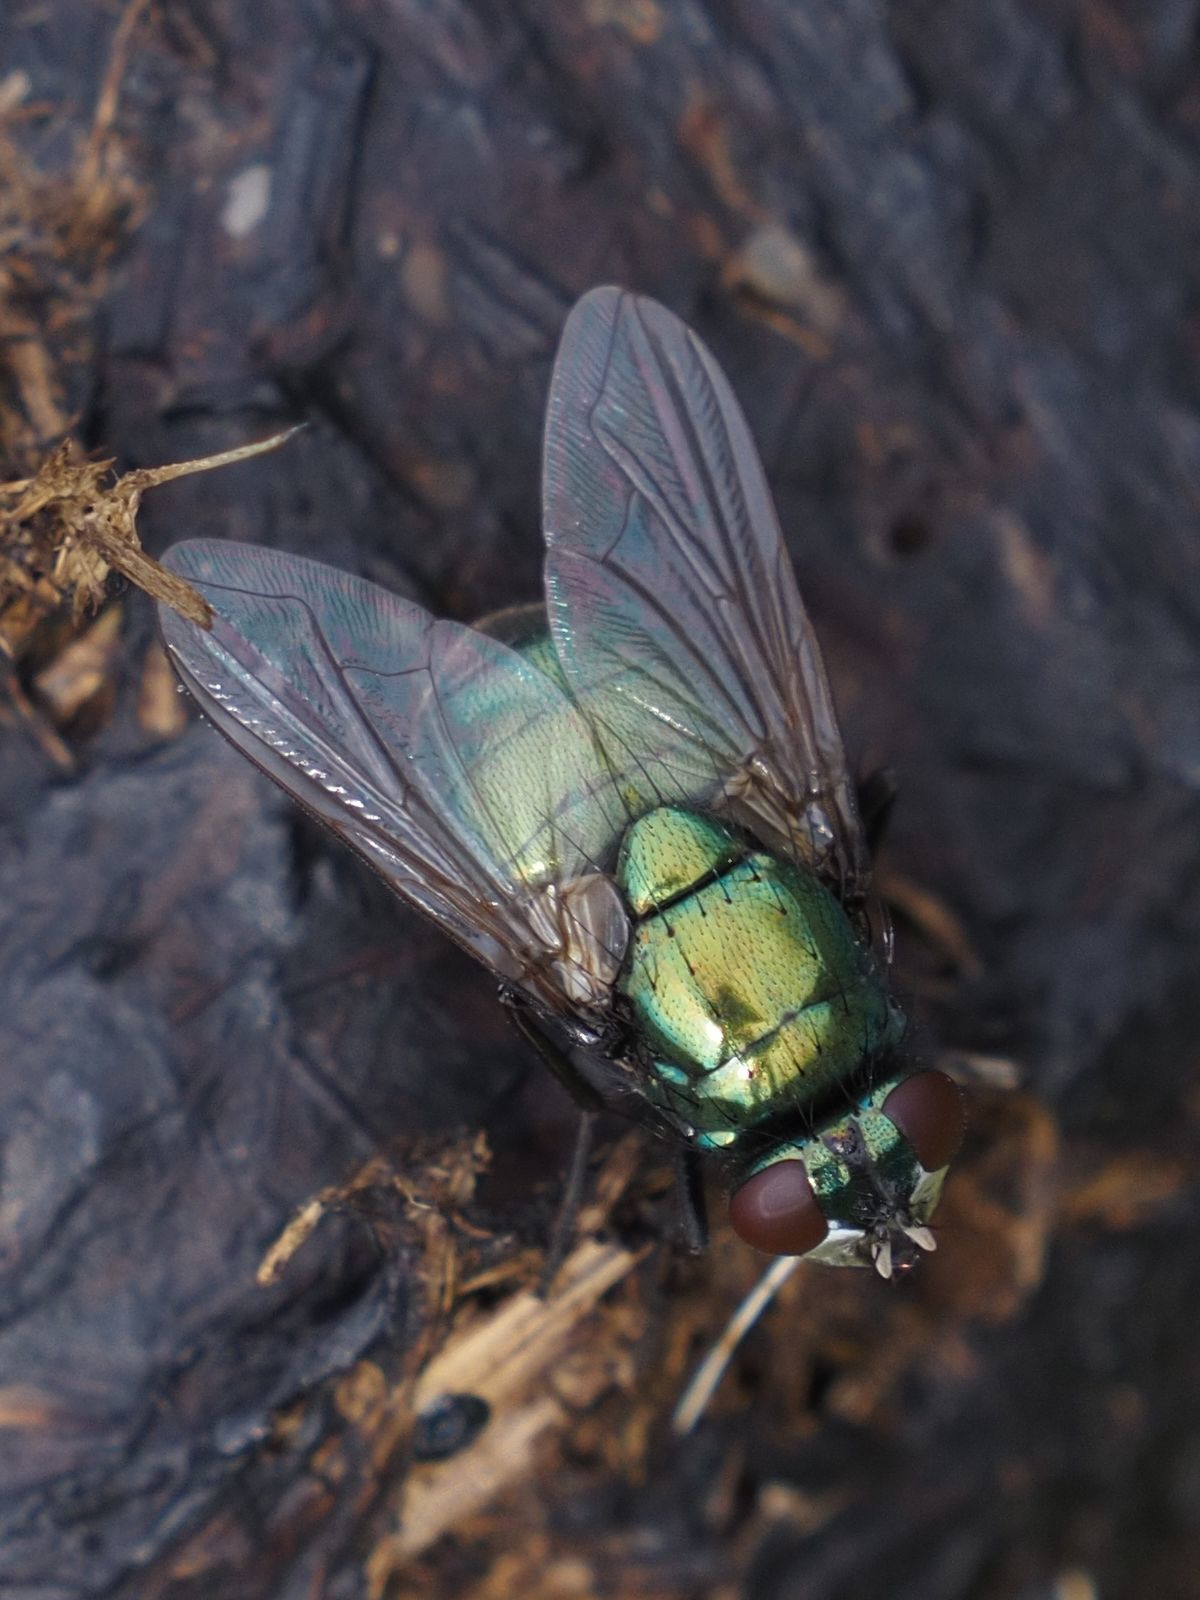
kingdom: Animalia
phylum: Arthropoda
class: Insecta
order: Diptera
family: Muscidae
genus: Neomyia
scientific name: Neomyia cornicina
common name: House fly
